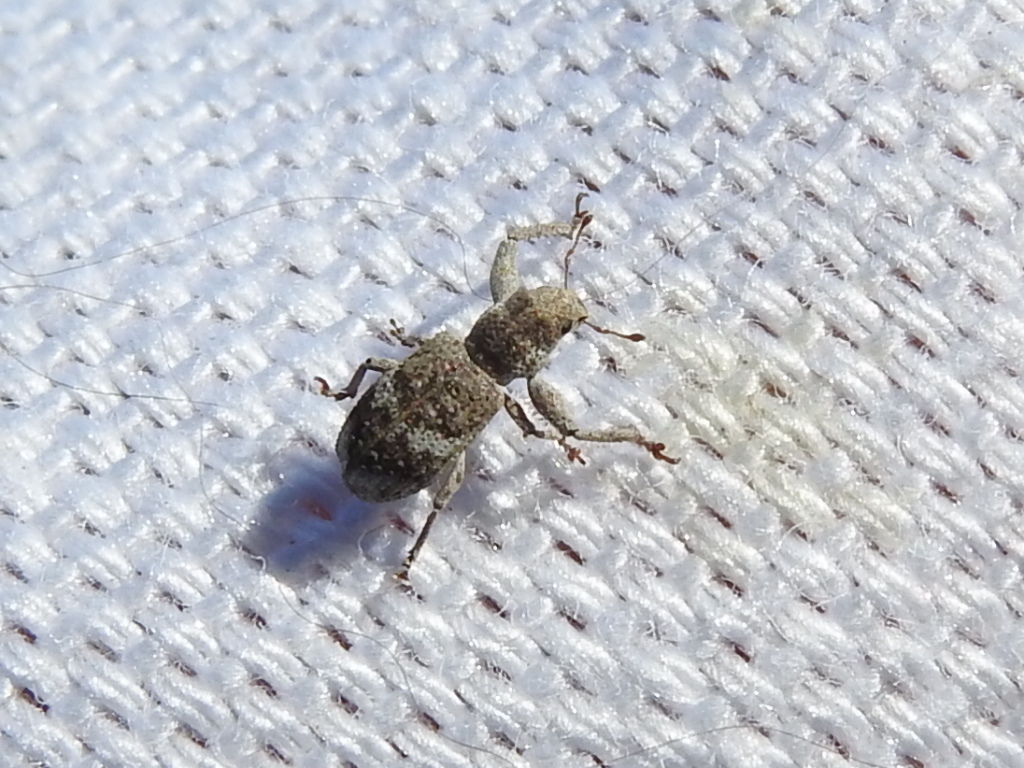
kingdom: Animalia
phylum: Arthropoda
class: Insecta
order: Coleoptera
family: Curculionidae
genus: Pandeleteius
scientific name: Pandeleteius cinereus
